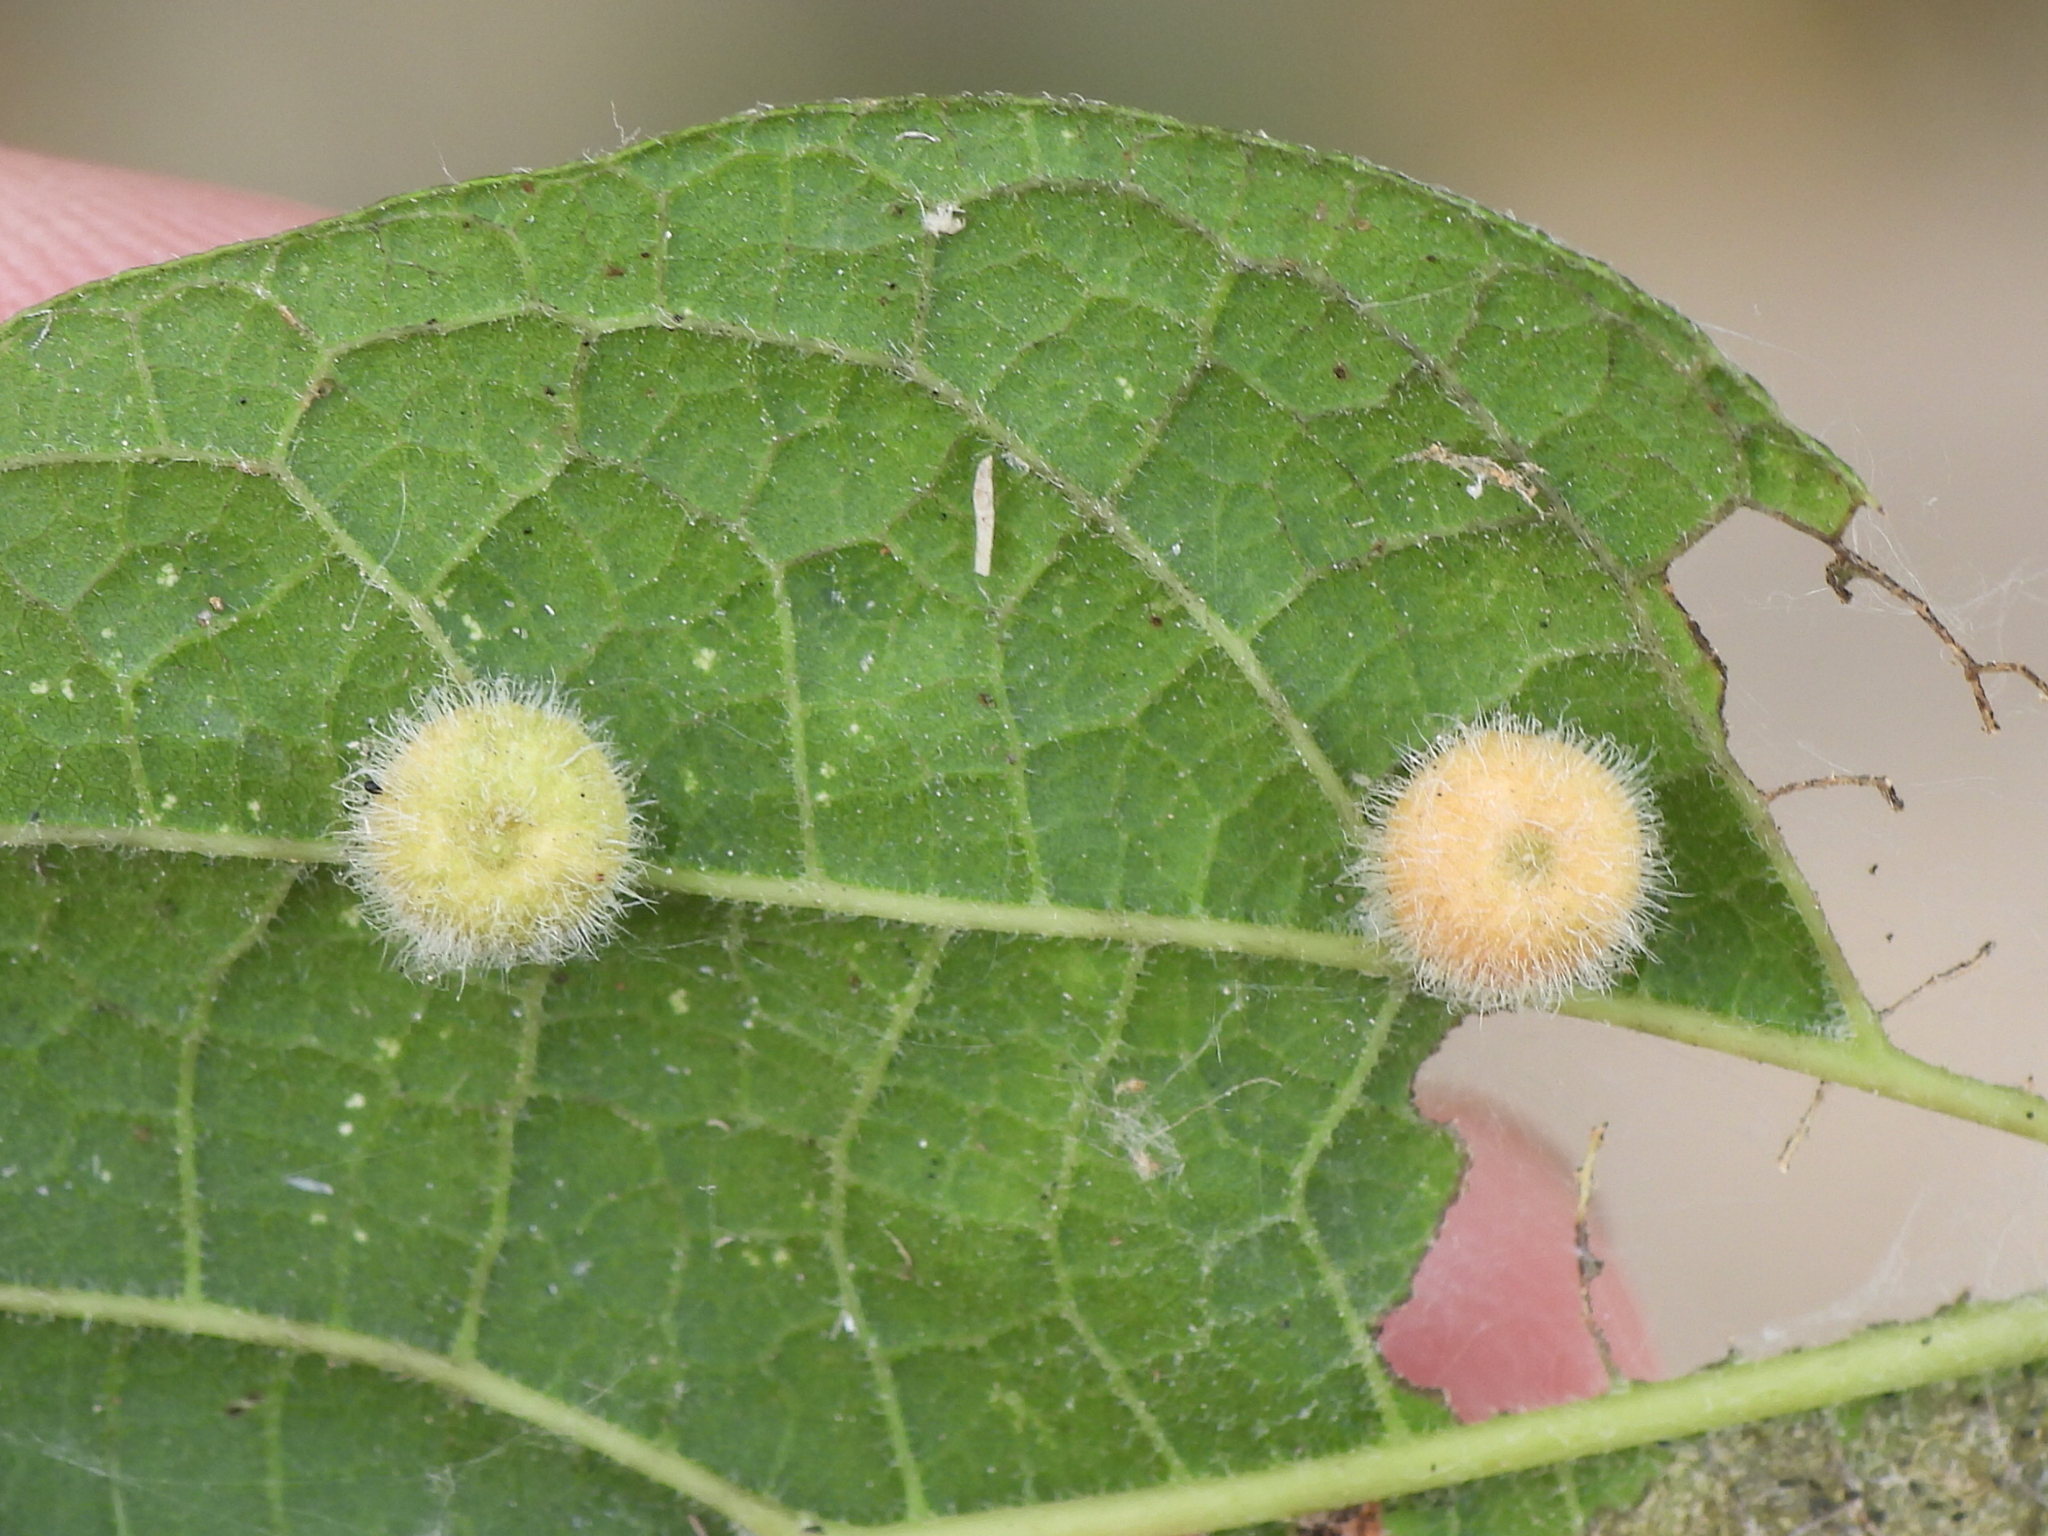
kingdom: Animalia
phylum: Arthropoda
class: Insecta
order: Diptera
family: Cecidomyiidae
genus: Celticecis
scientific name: Celticecis pubescens
